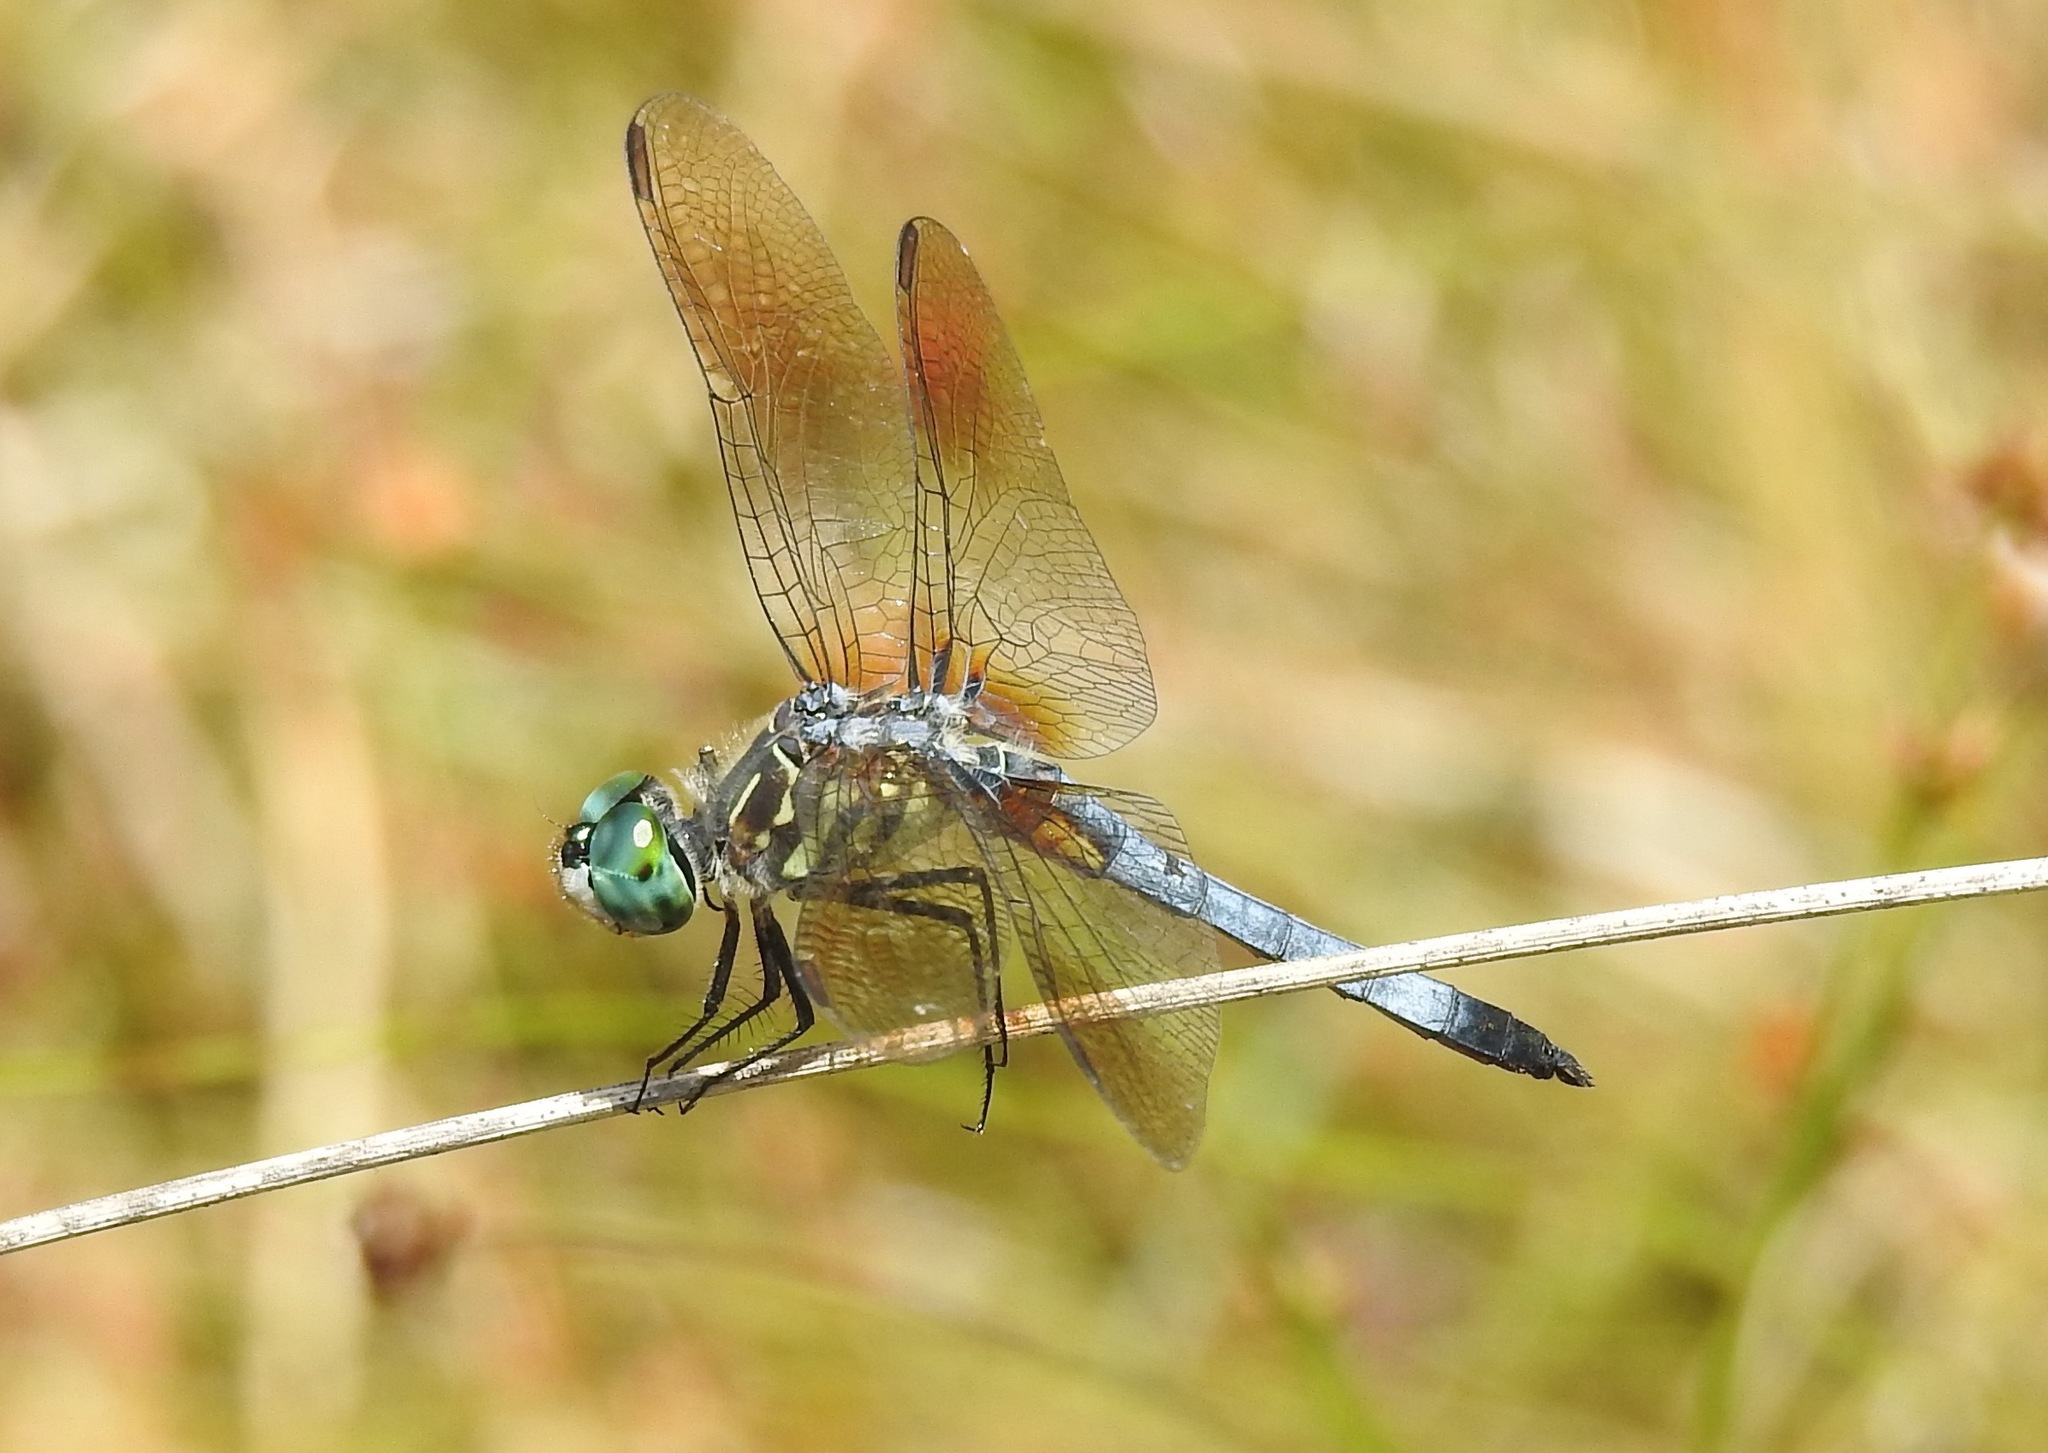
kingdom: Animalia
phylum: Arthropoda
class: Insecta
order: Odonata
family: Libellulidae
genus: Pachydiplax
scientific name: Pachydiplax longipennis
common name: Blue dasher
